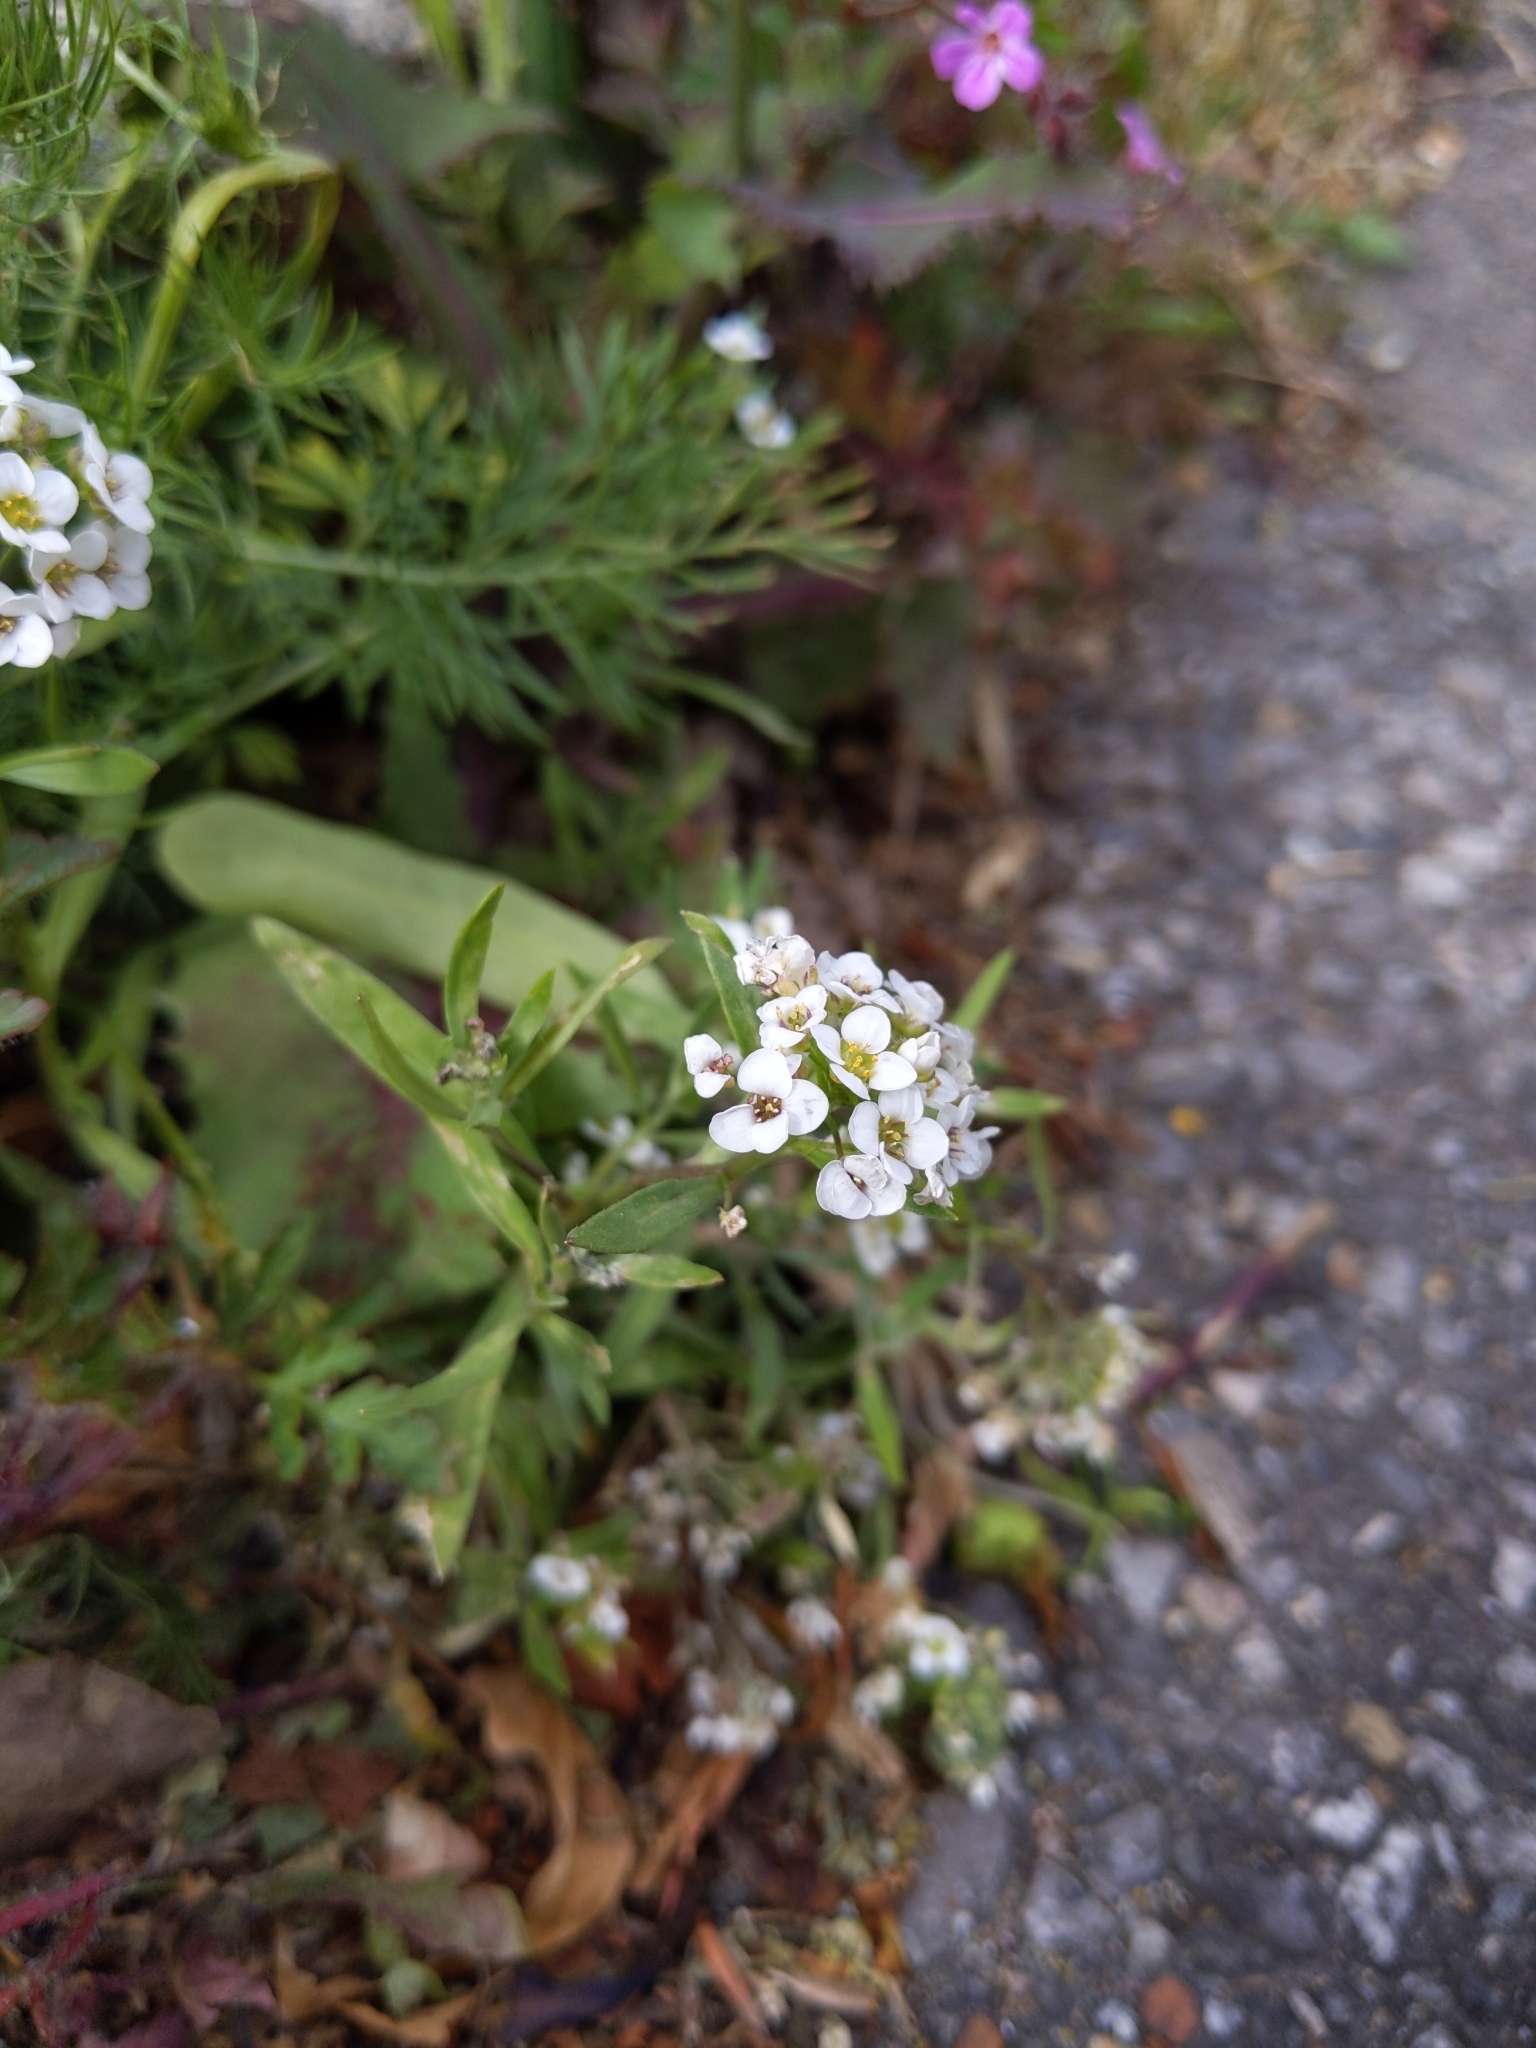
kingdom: Plantae
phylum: Tracheophyta
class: Magnoliopsida
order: Brassicales
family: Brassicaceae
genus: Lobularia
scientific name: Lobularia maritima
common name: Sweet alison
